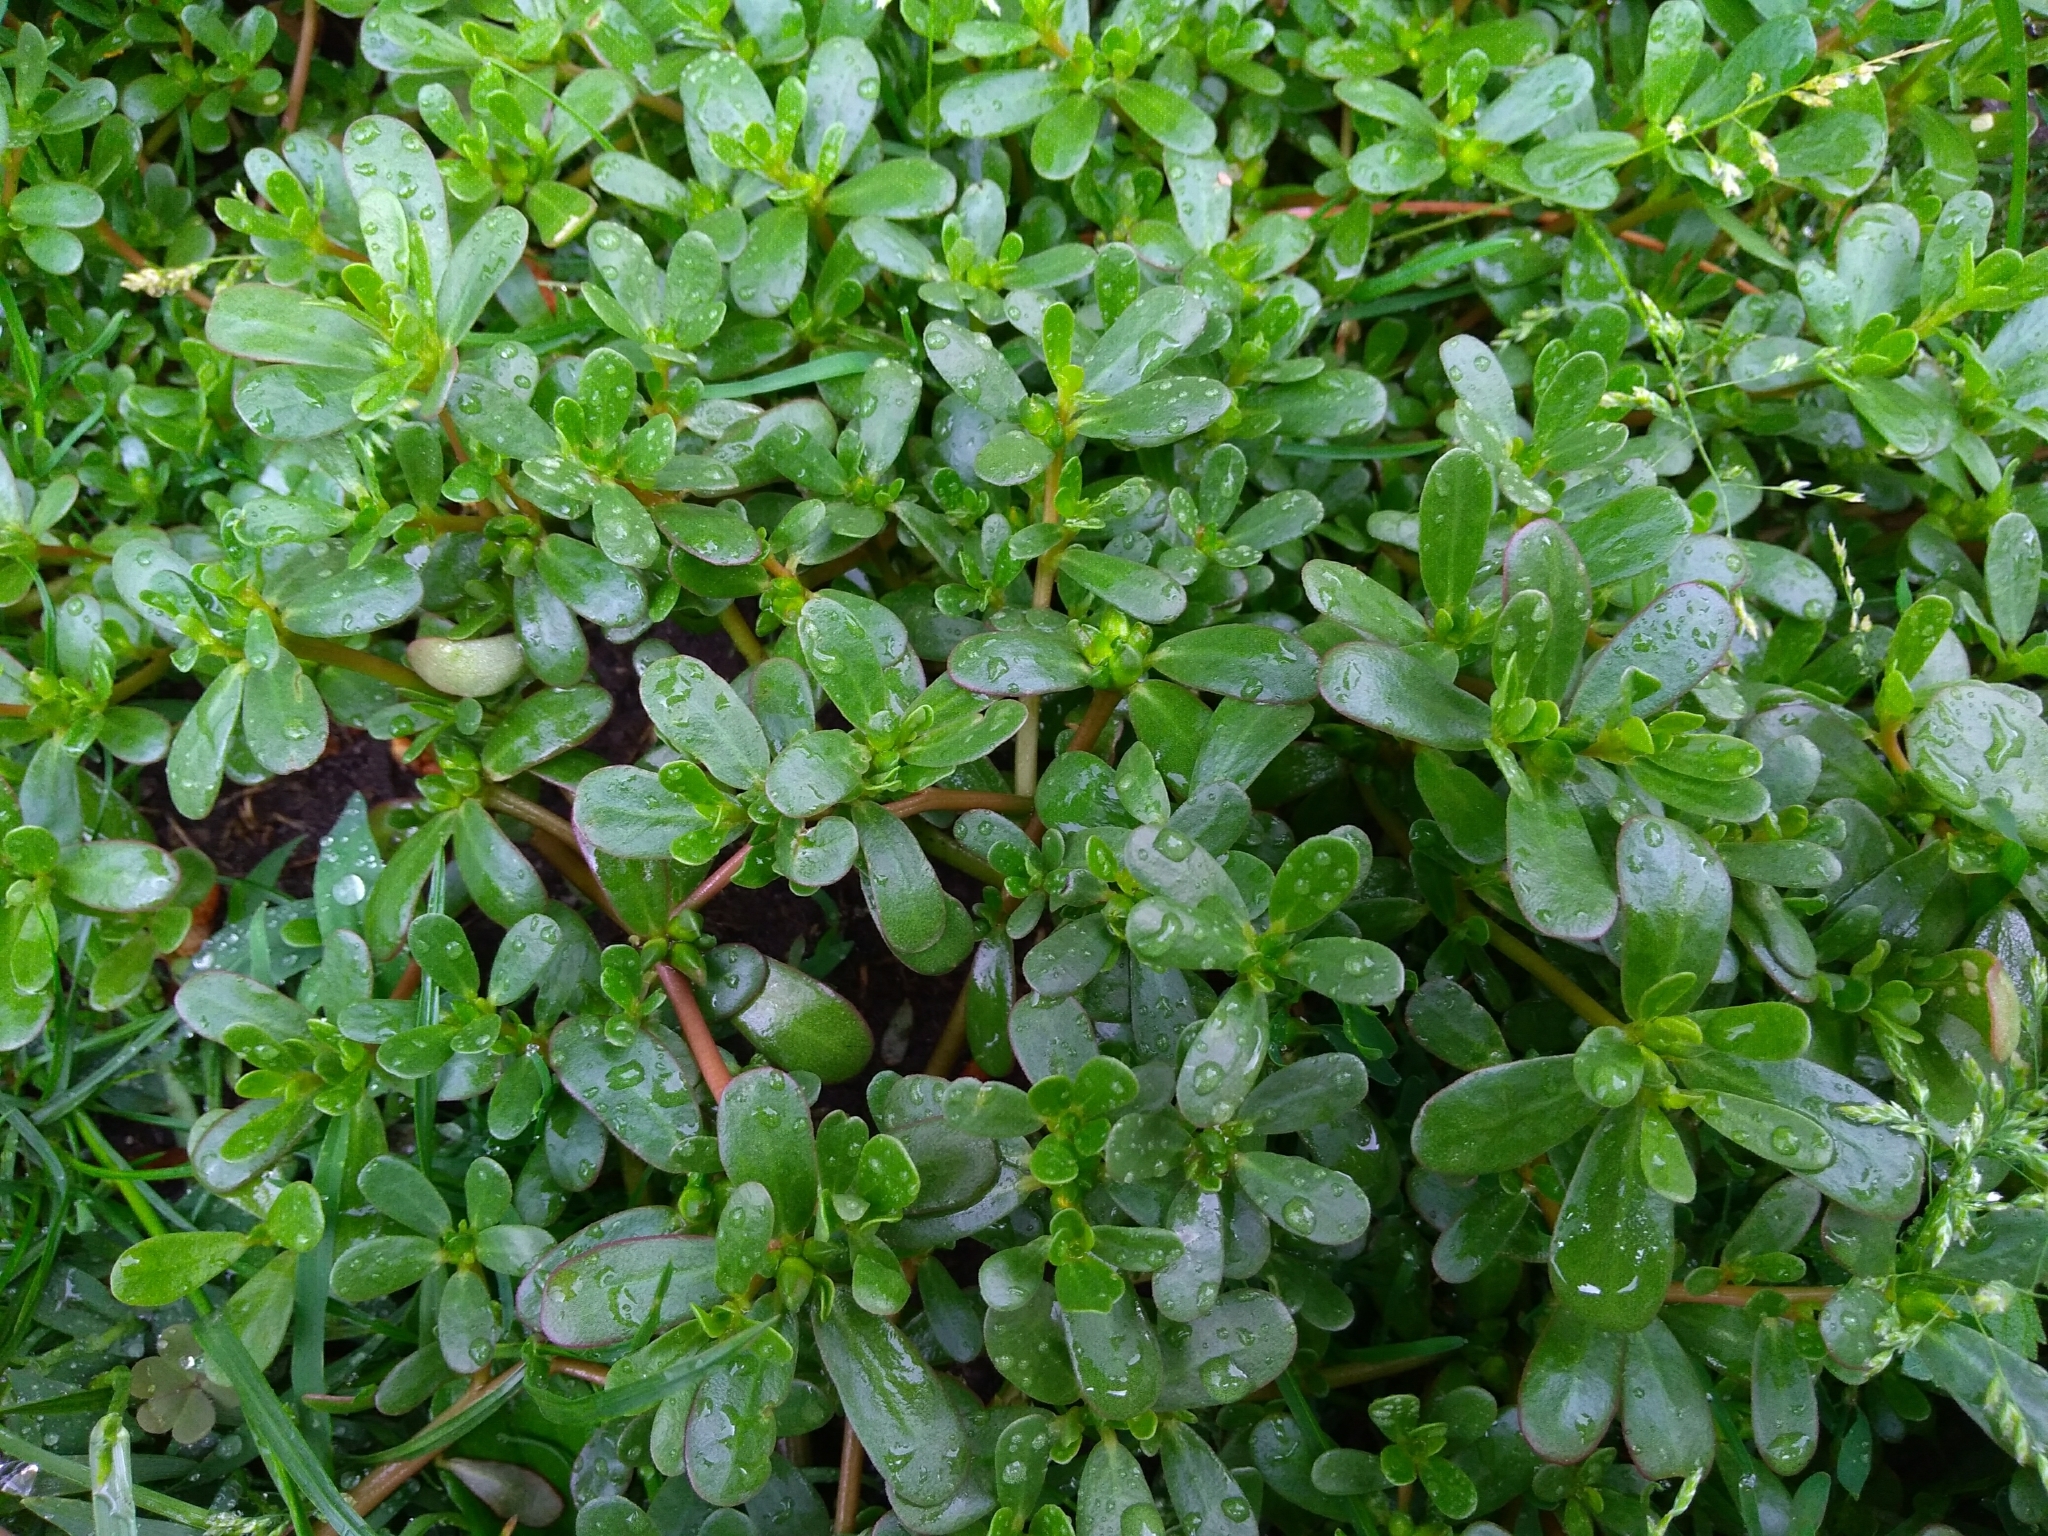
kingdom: Plantae
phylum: Tracheophyta
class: Magnoliopsida
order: Caryophyllales
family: Portulacaceae
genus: Portulaca
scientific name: Portulaca oleracea
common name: Common purslane
